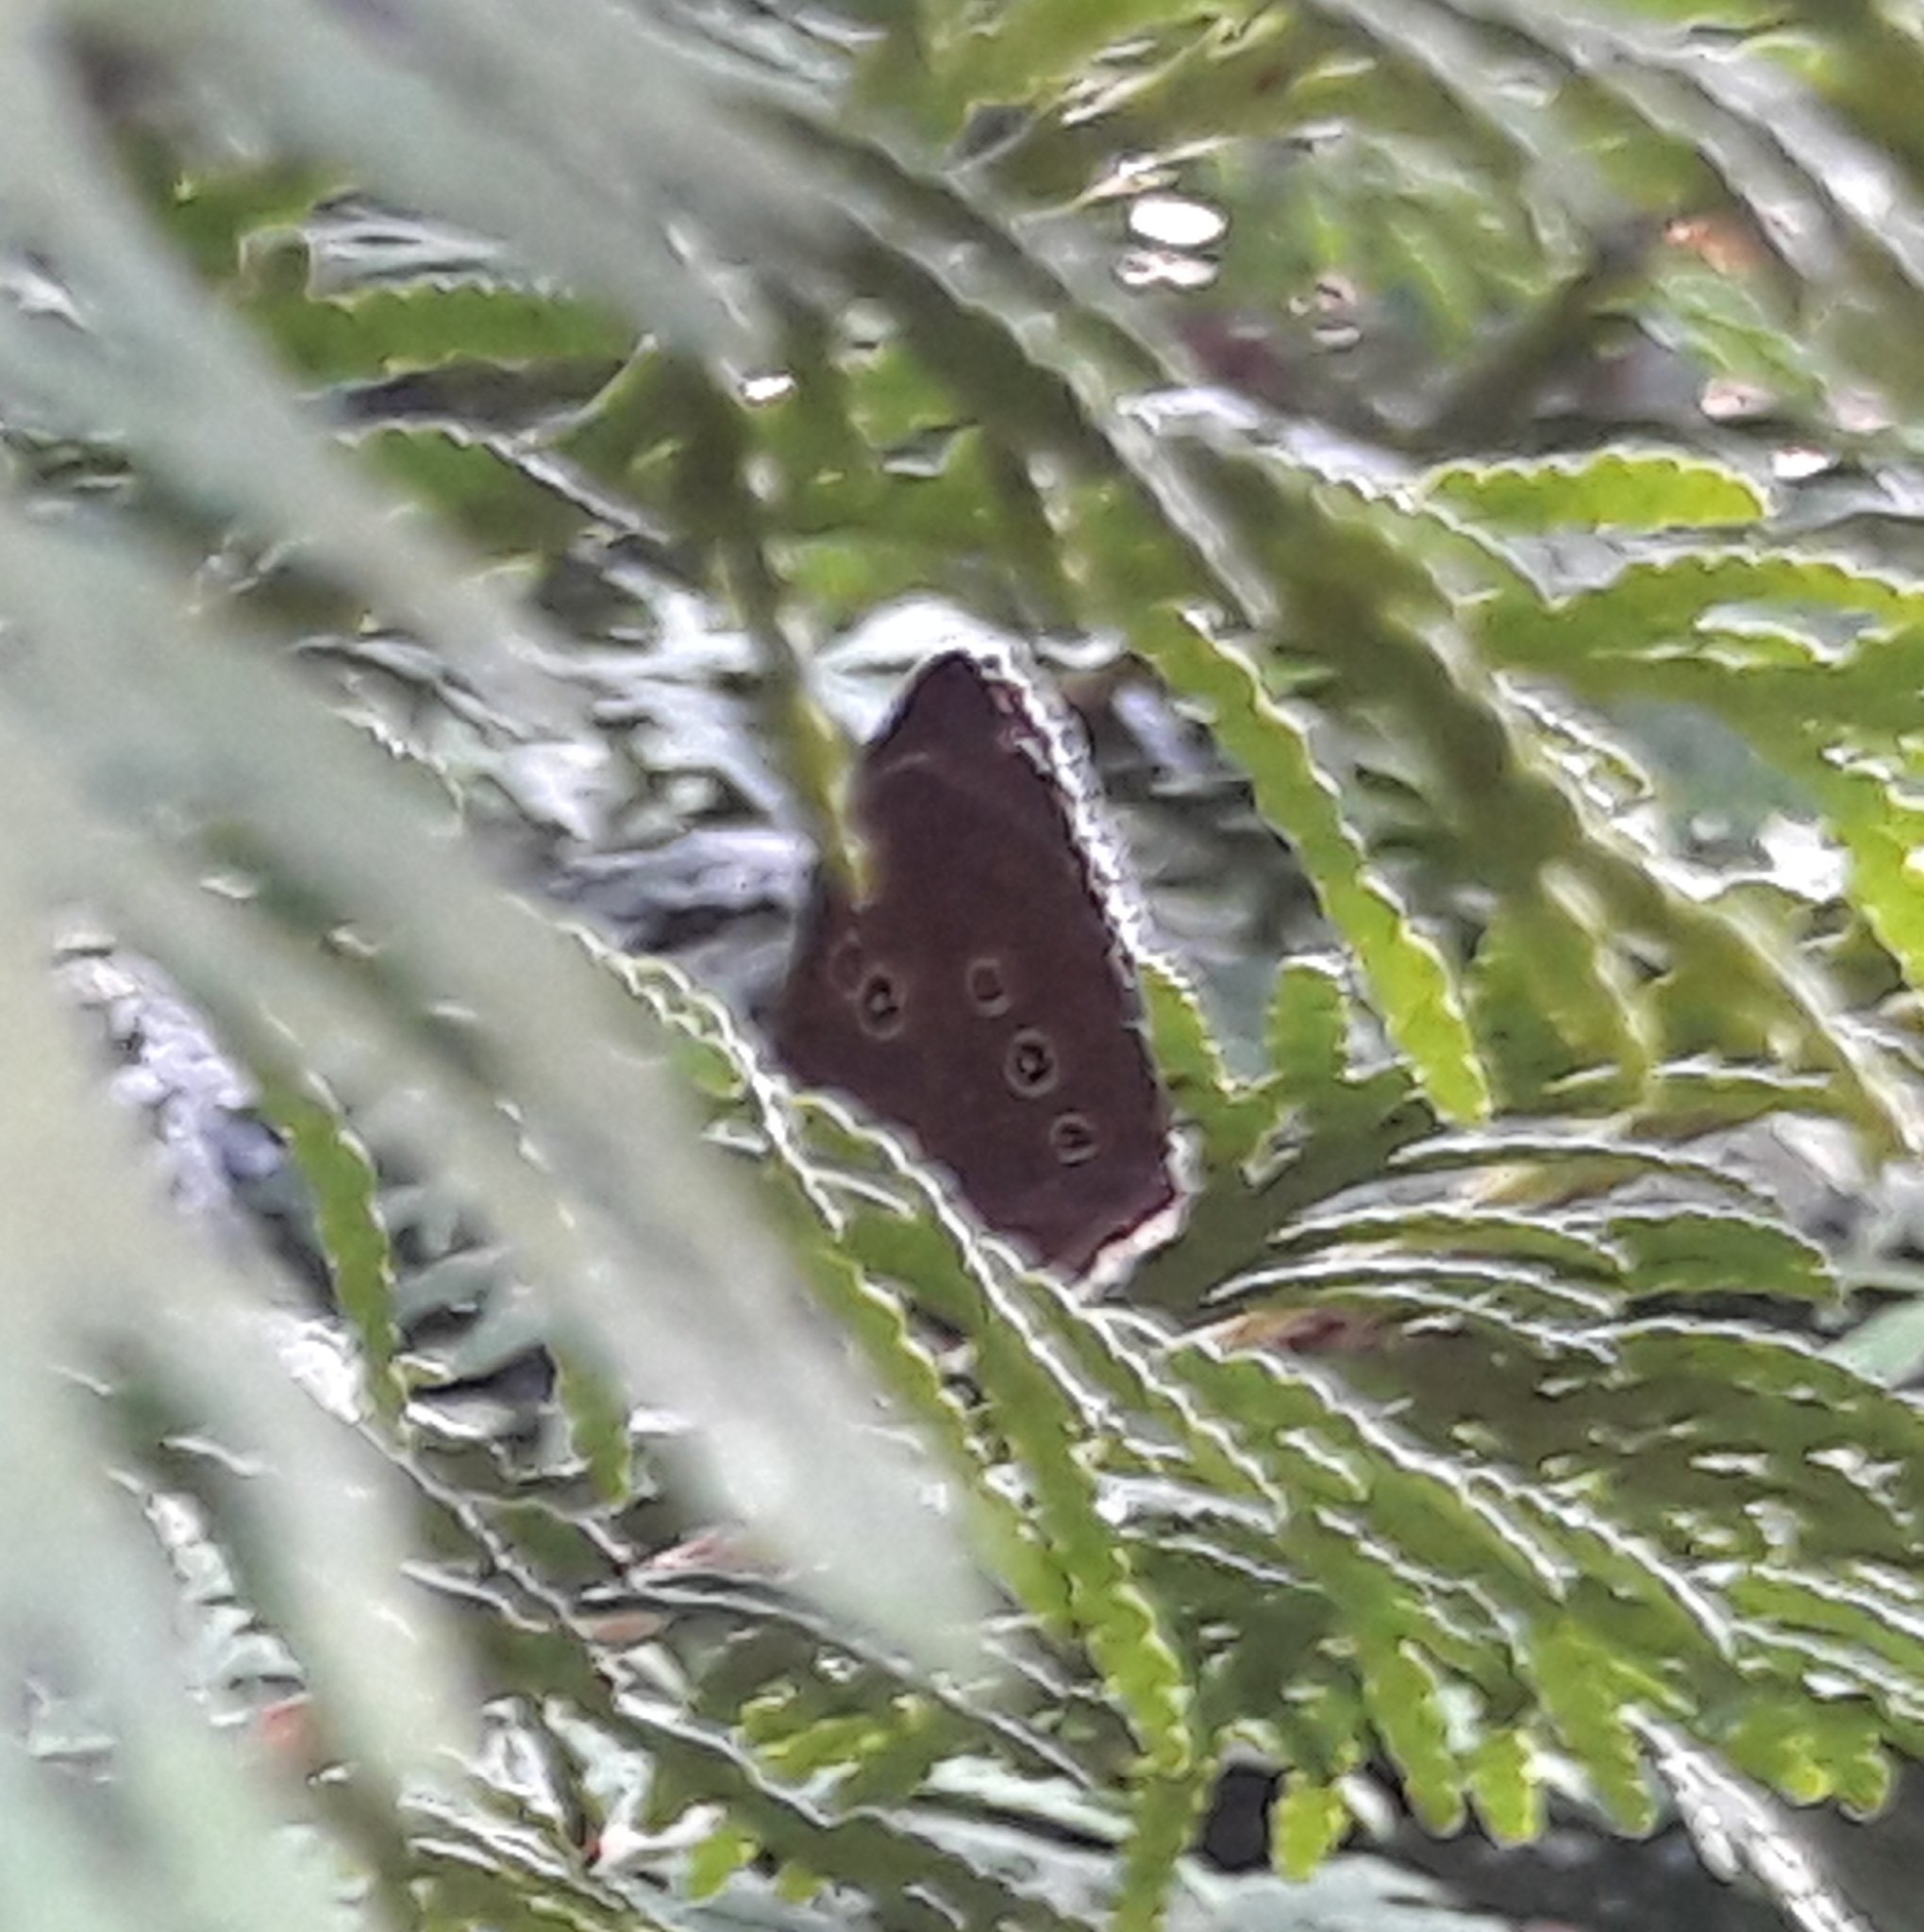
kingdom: Animalia
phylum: Arthropoda
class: Insecta
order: Lepidoptera
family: Nymphalidae
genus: Aphantopus
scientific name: Aphantopus hyperantus
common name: Ringlet
